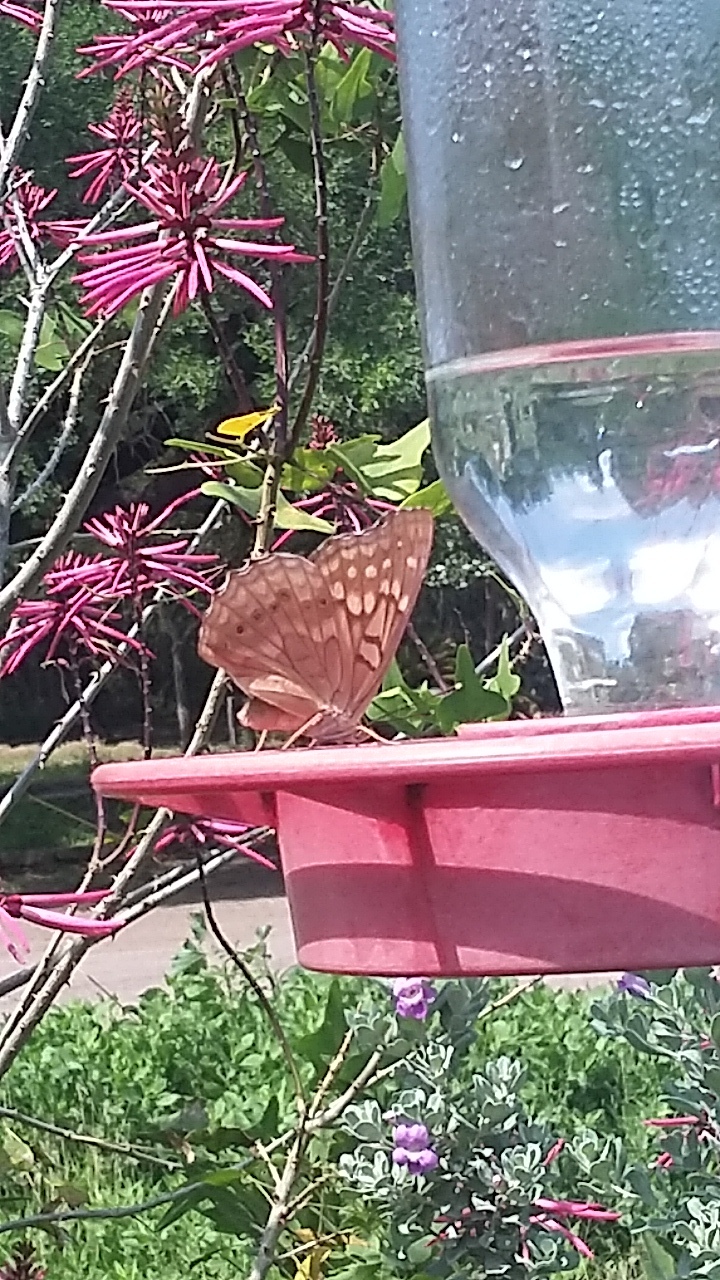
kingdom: Animalia
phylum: Arthropoda
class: Insecta
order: Lepidoptera
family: Nymphalidae
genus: Asterocampa
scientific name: Asterocampa clyton
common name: Tawny emperor
